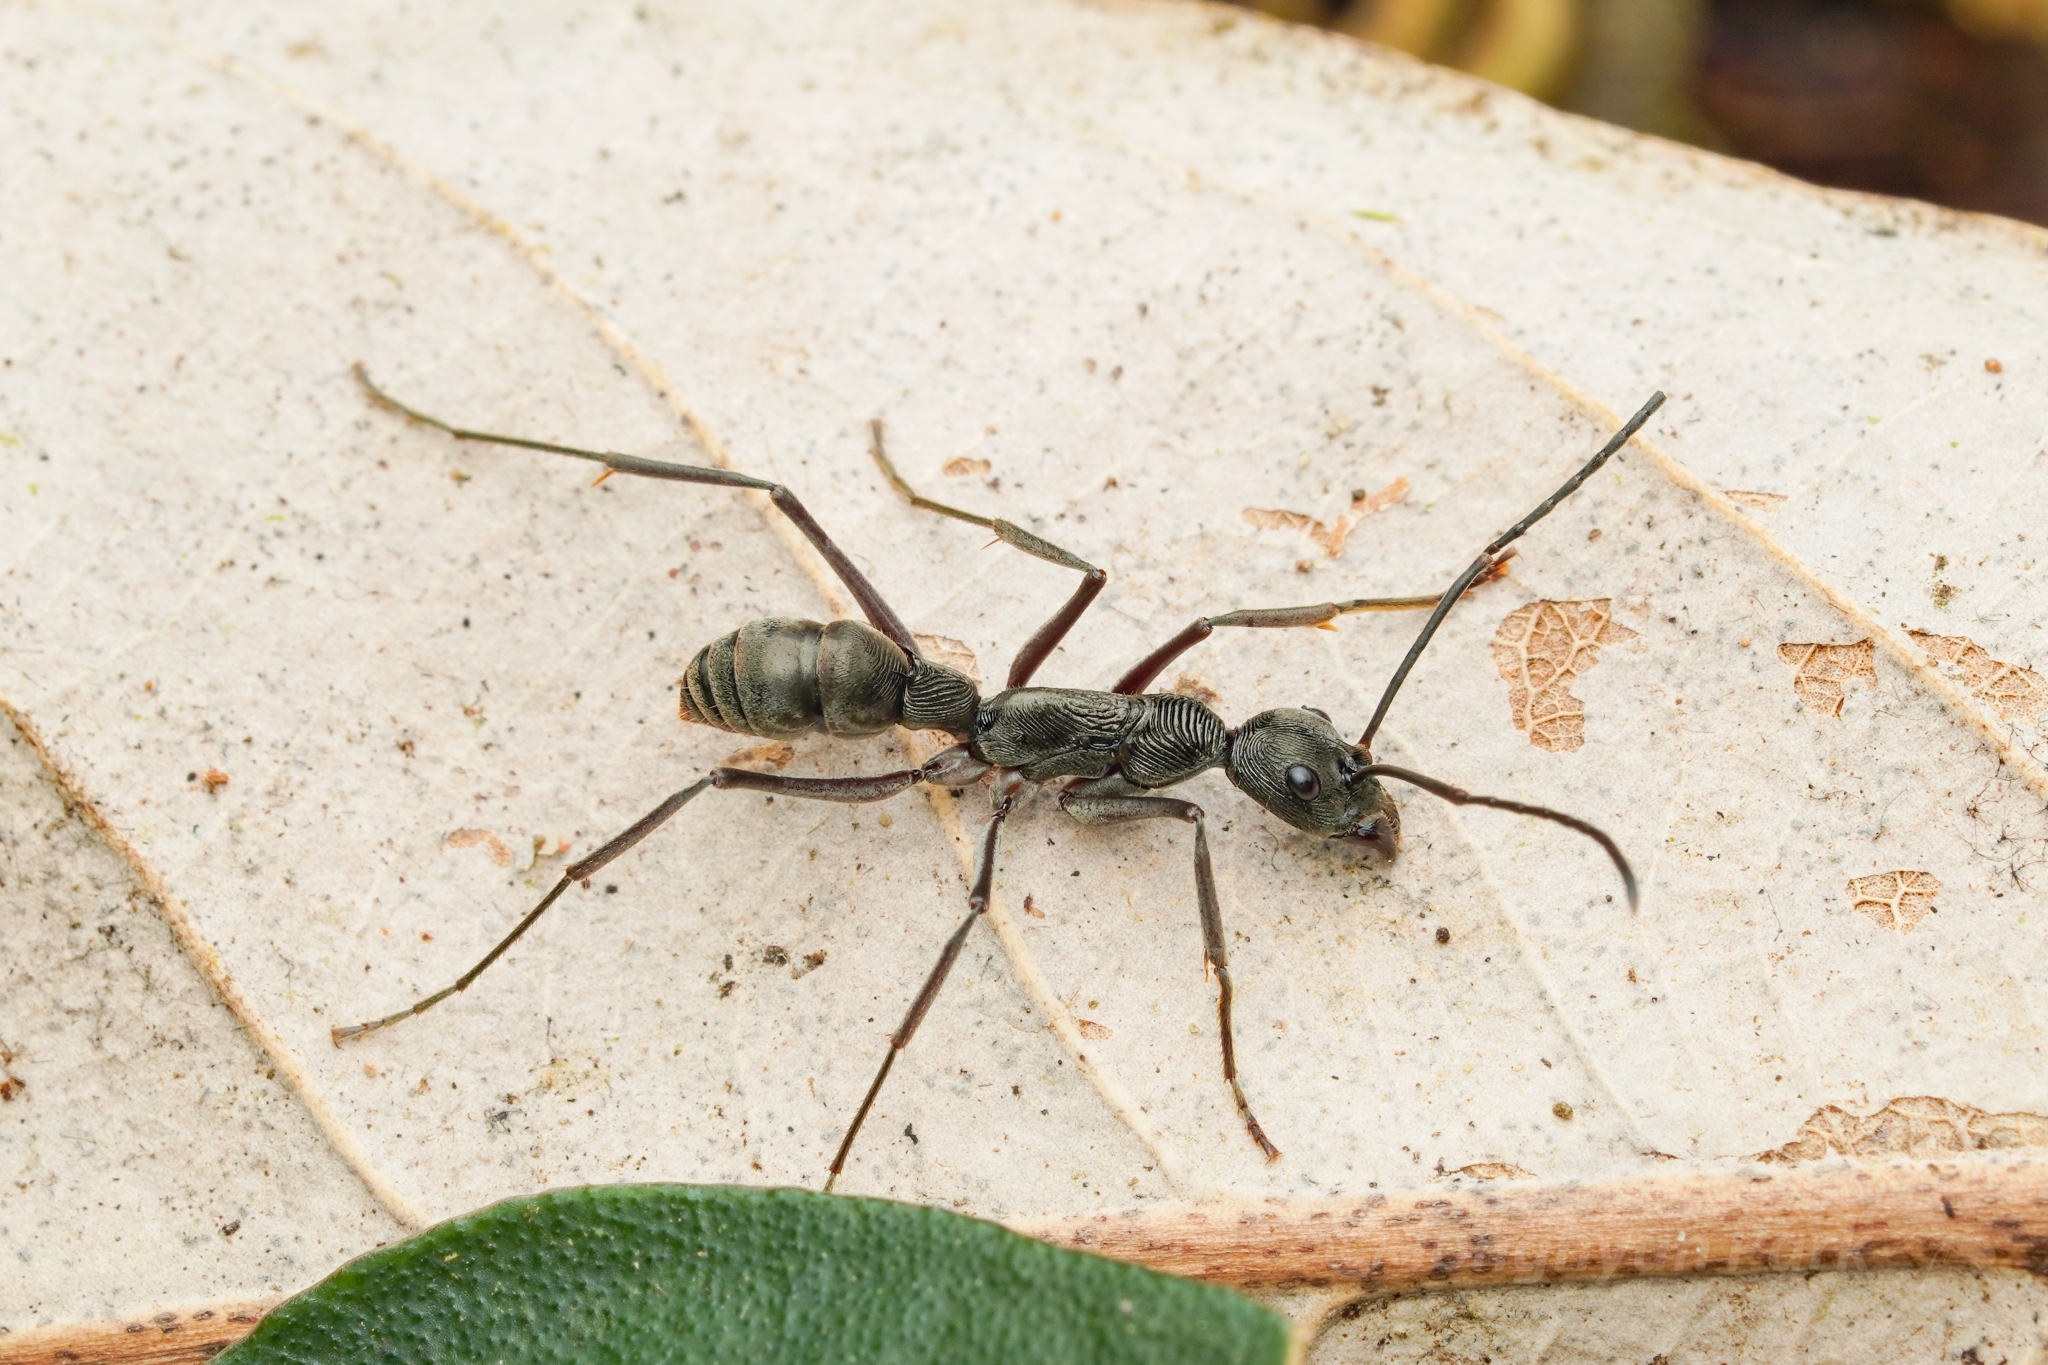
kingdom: Animalia
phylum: Arthropoda
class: Insecta
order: Hymenoptera
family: Formicidae
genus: Diacamma
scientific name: Diacamma intricatum
